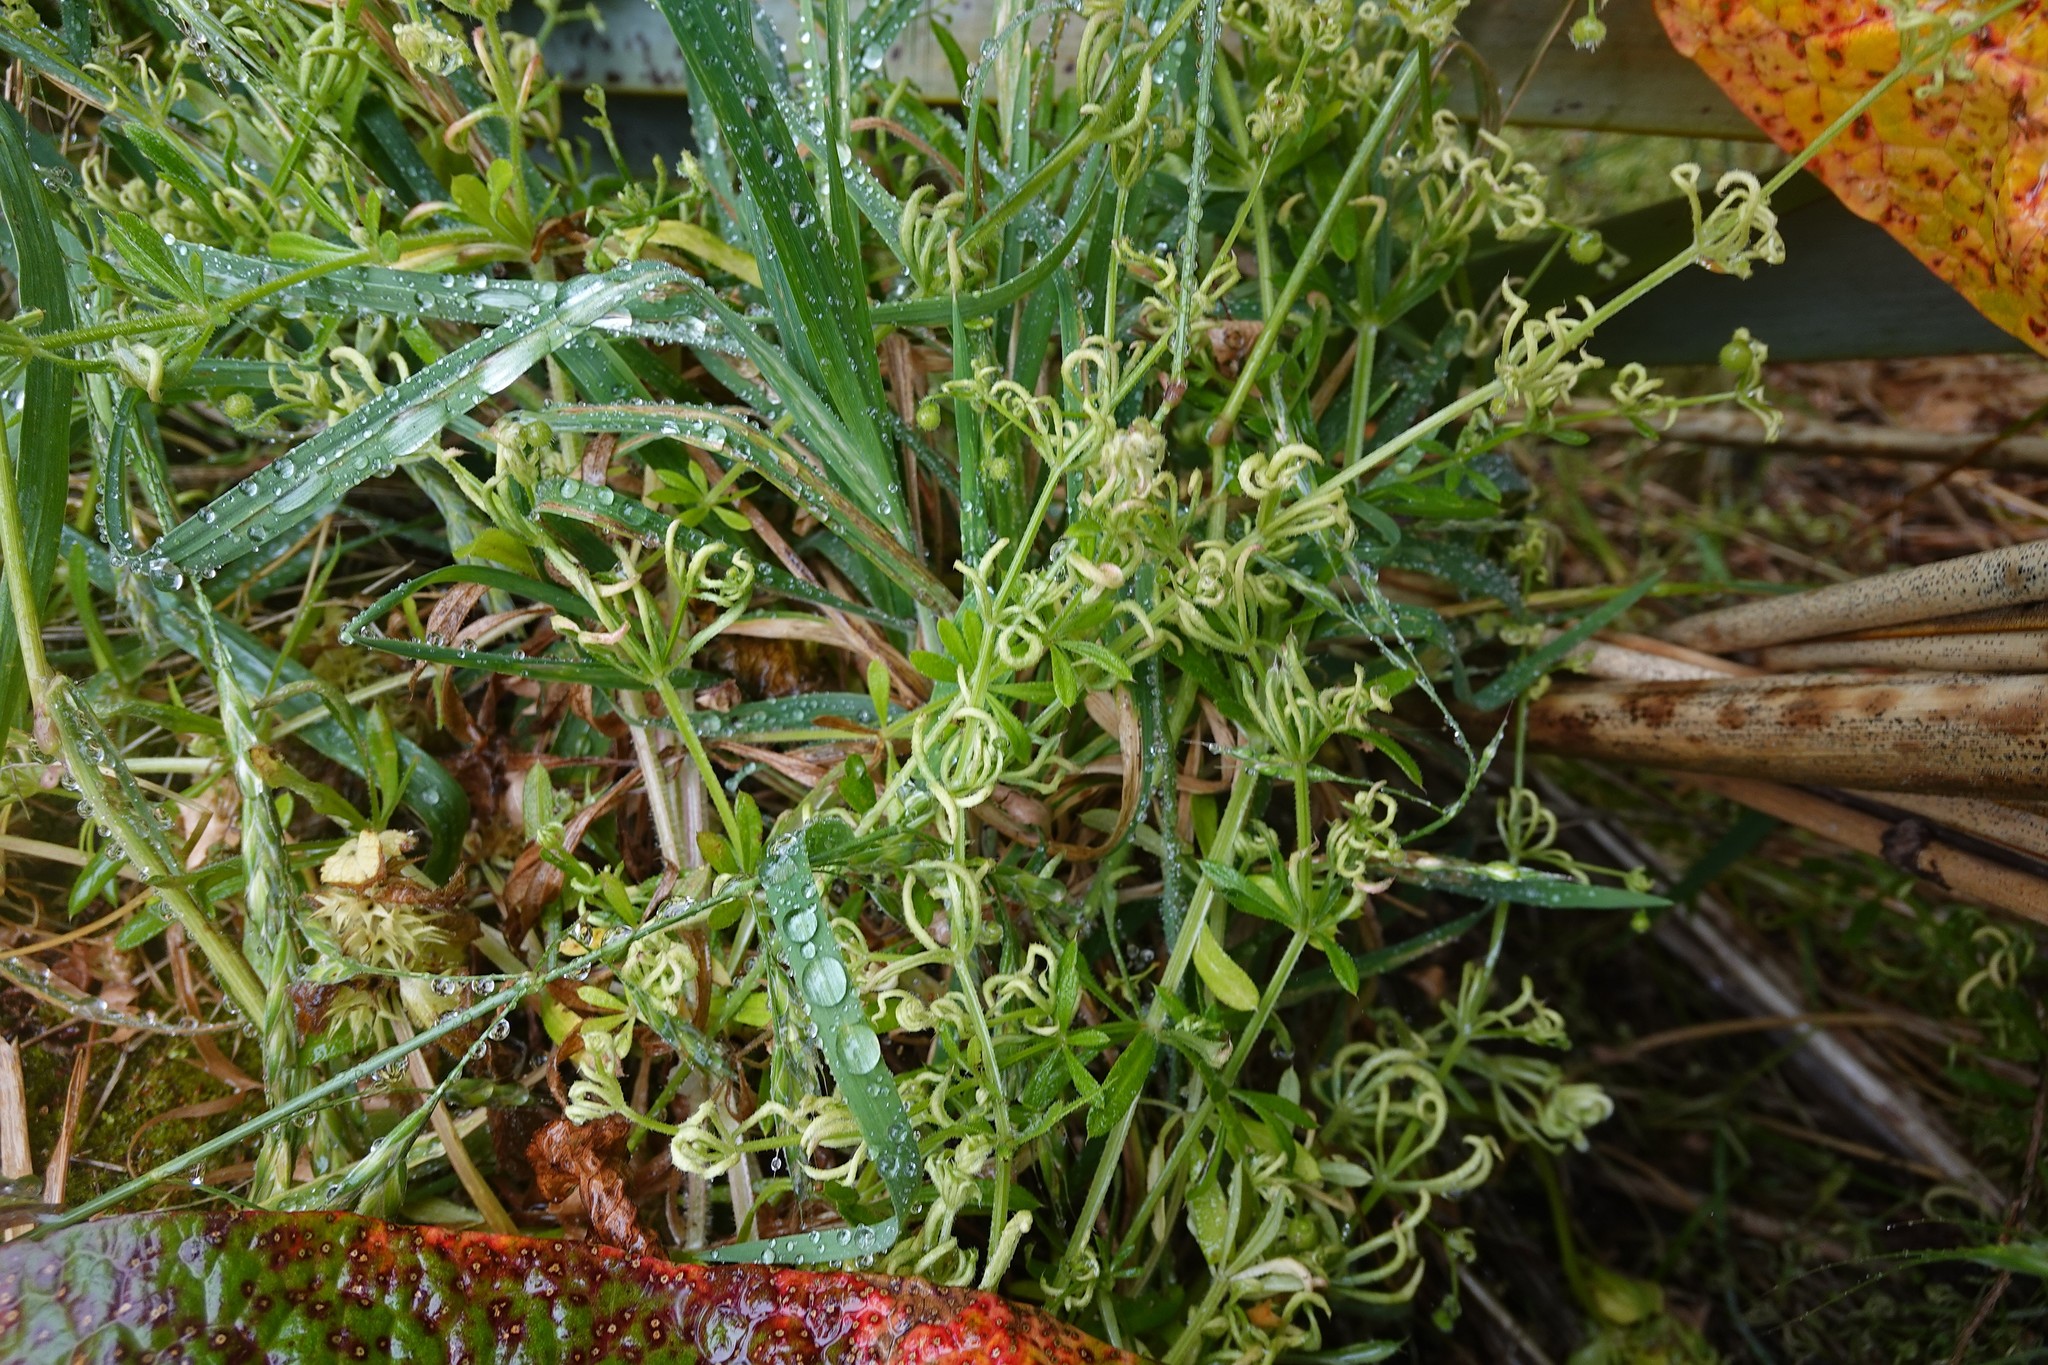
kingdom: Animalia
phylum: Arthropoda
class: Arachnida
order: Trombidiformes
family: Eriophyidae
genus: Cecidophyes
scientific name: Cecidophyes rouhollahi
